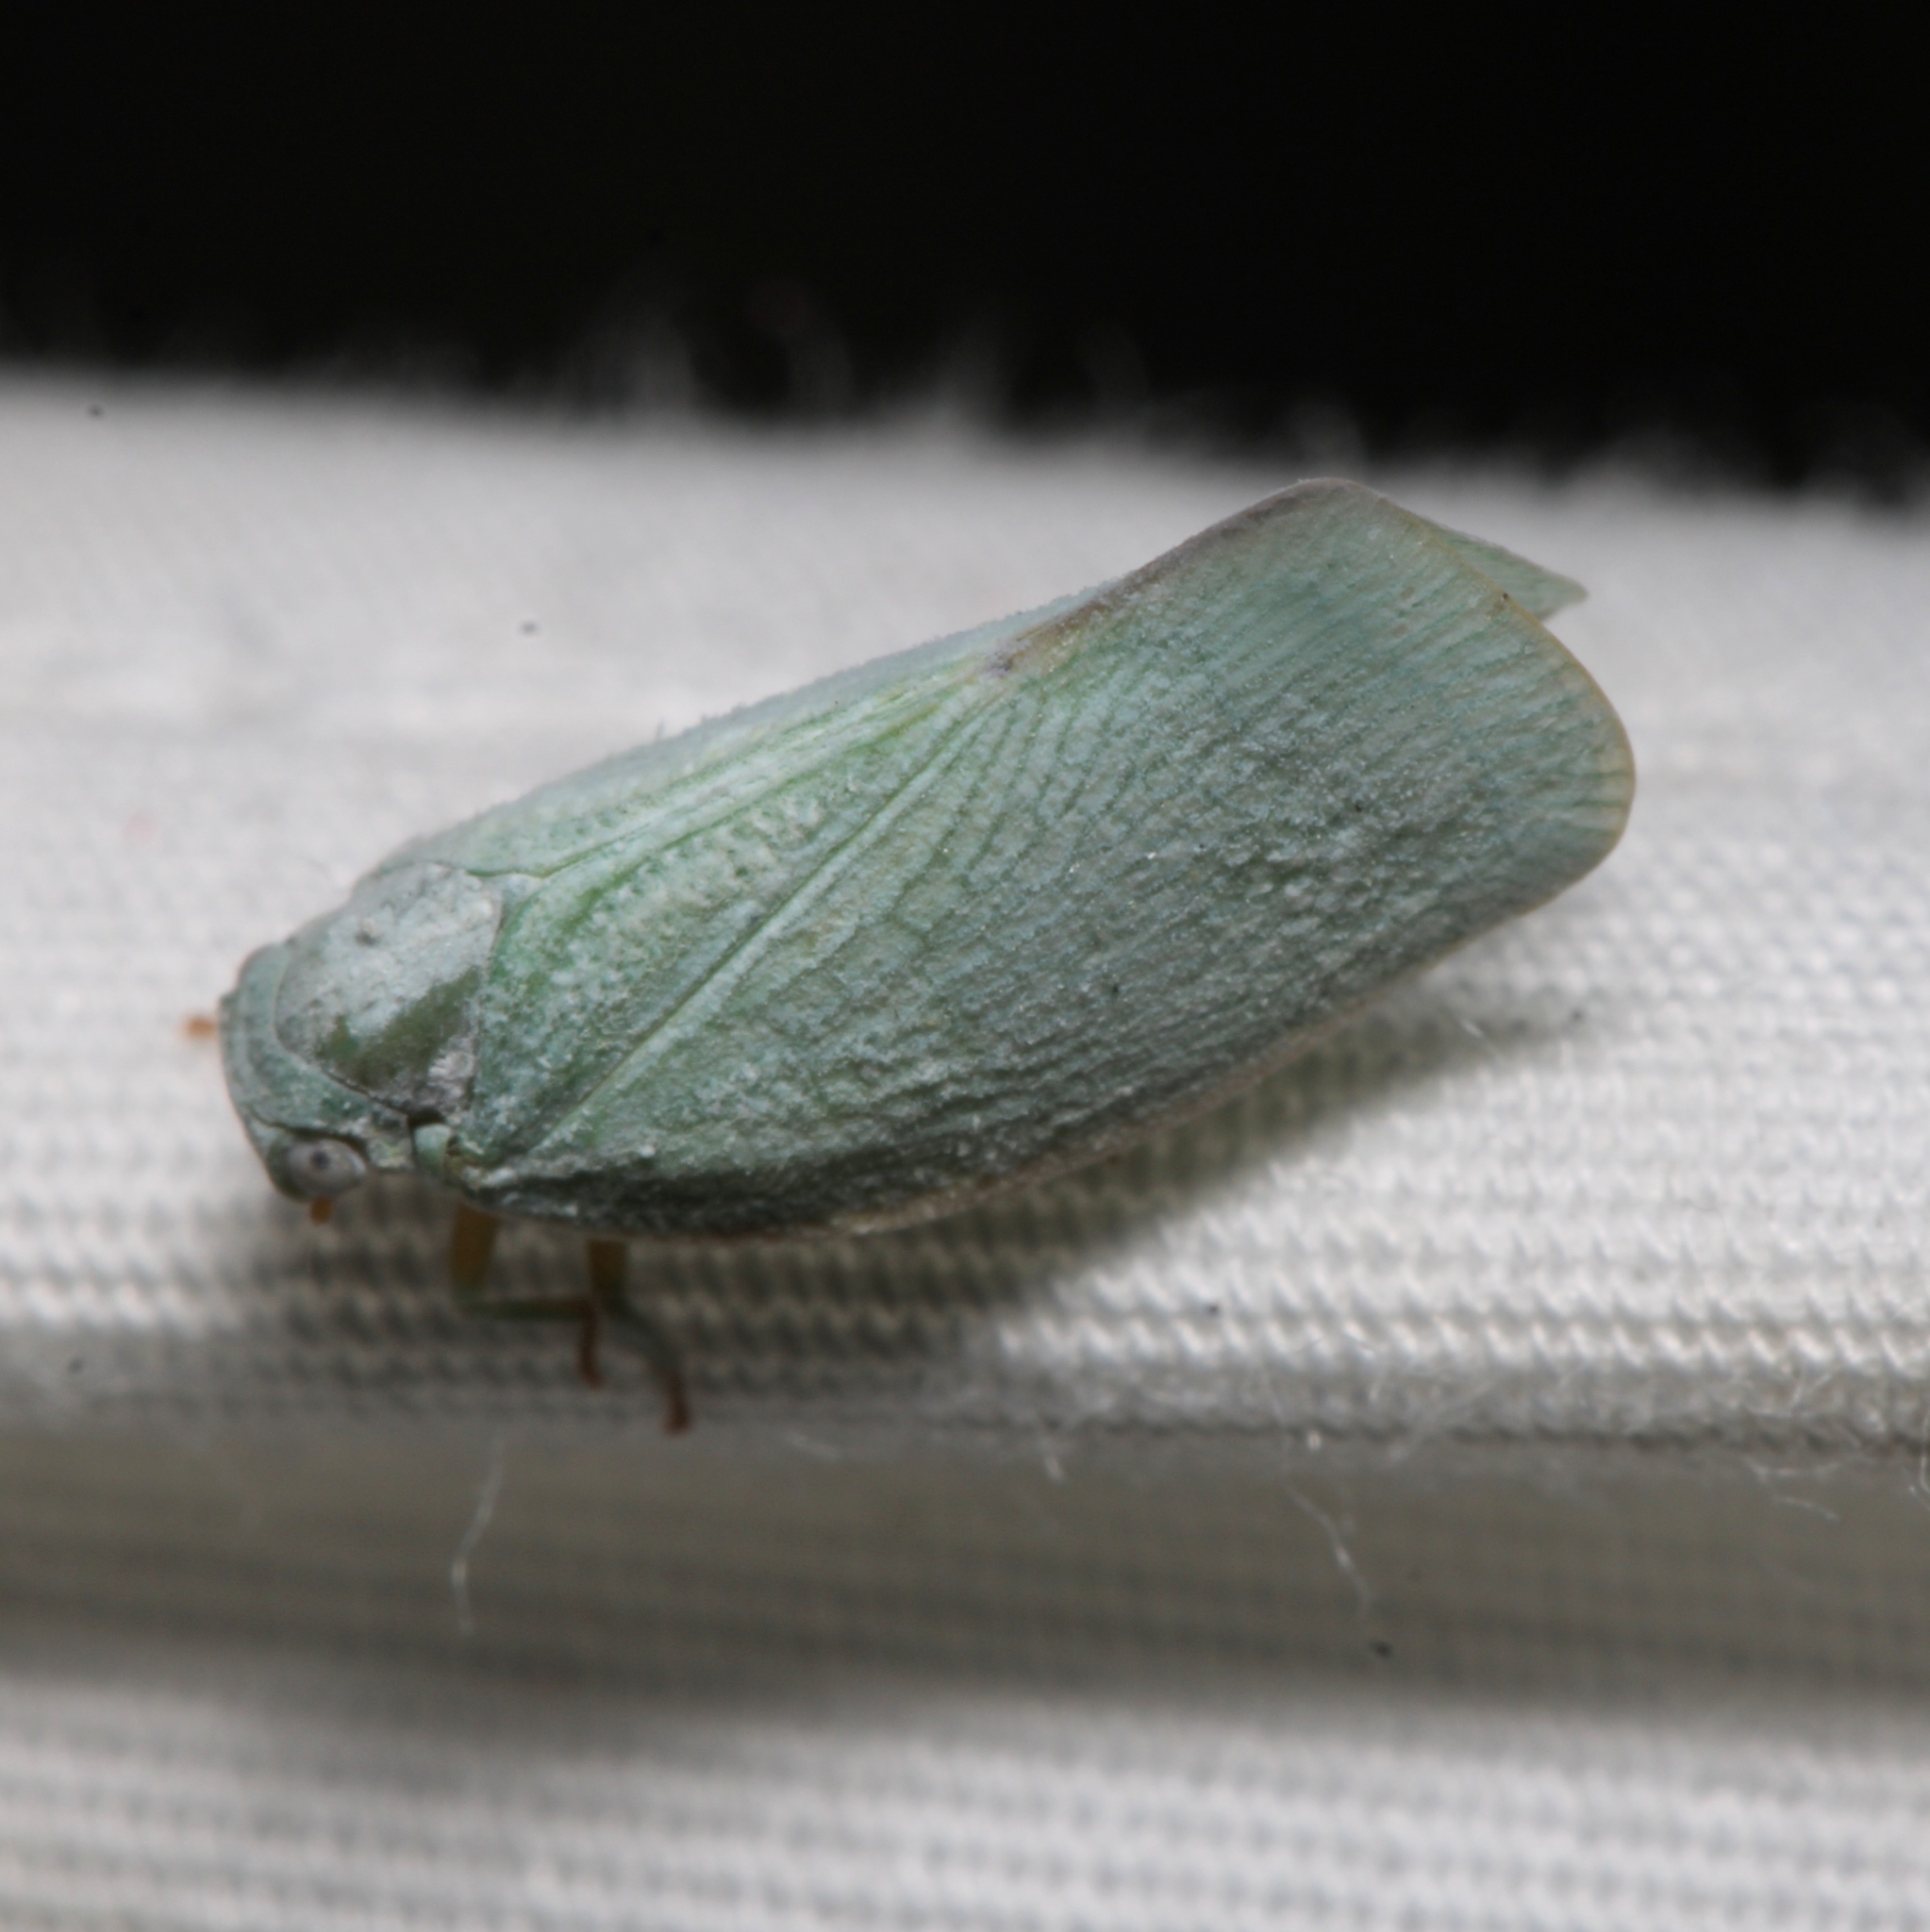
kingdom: Animalia
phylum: Arthropoda
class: Insecta
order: Hemiptera
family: Flatidae
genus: Flatormenis
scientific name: Flatormenis proxima
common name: Northern flatid planthopper
